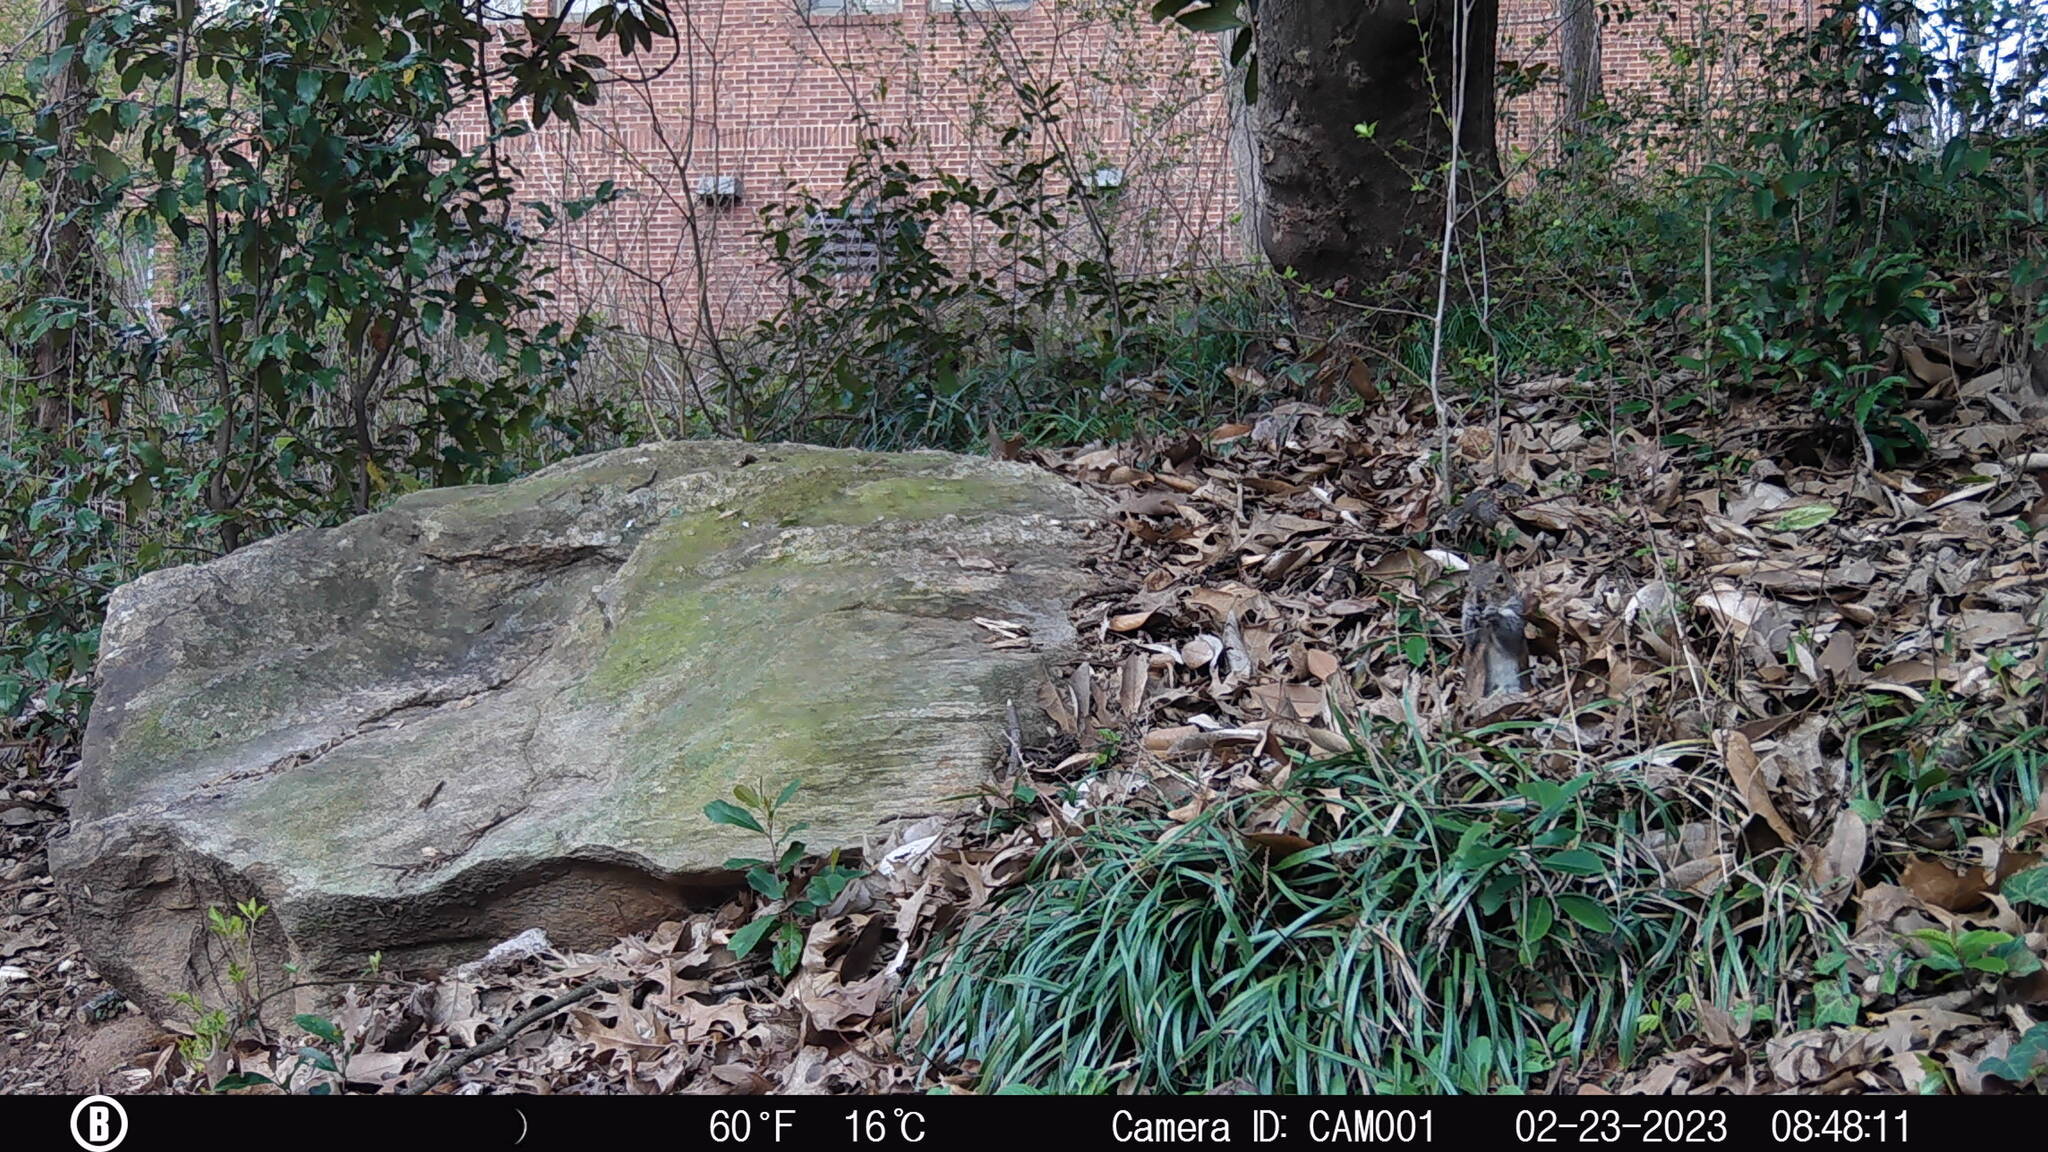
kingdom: Animalia
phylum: Chordata
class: Mammalia
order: Rodentia
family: Sciuridae
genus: Sciurus
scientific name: Sciurus carolinensis
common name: Eastern gray squirrel
